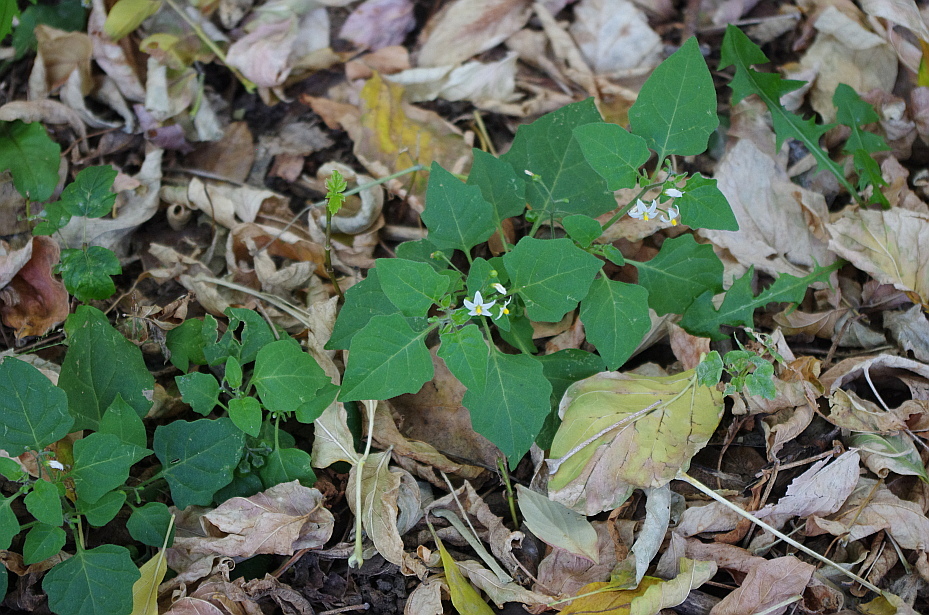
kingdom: Plantae
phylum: Tracheophyta
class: Magnoliopsida
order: Solanales
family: Solanaceae
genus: Solanum
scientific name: Solanum nigrum
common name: Black nightshade
